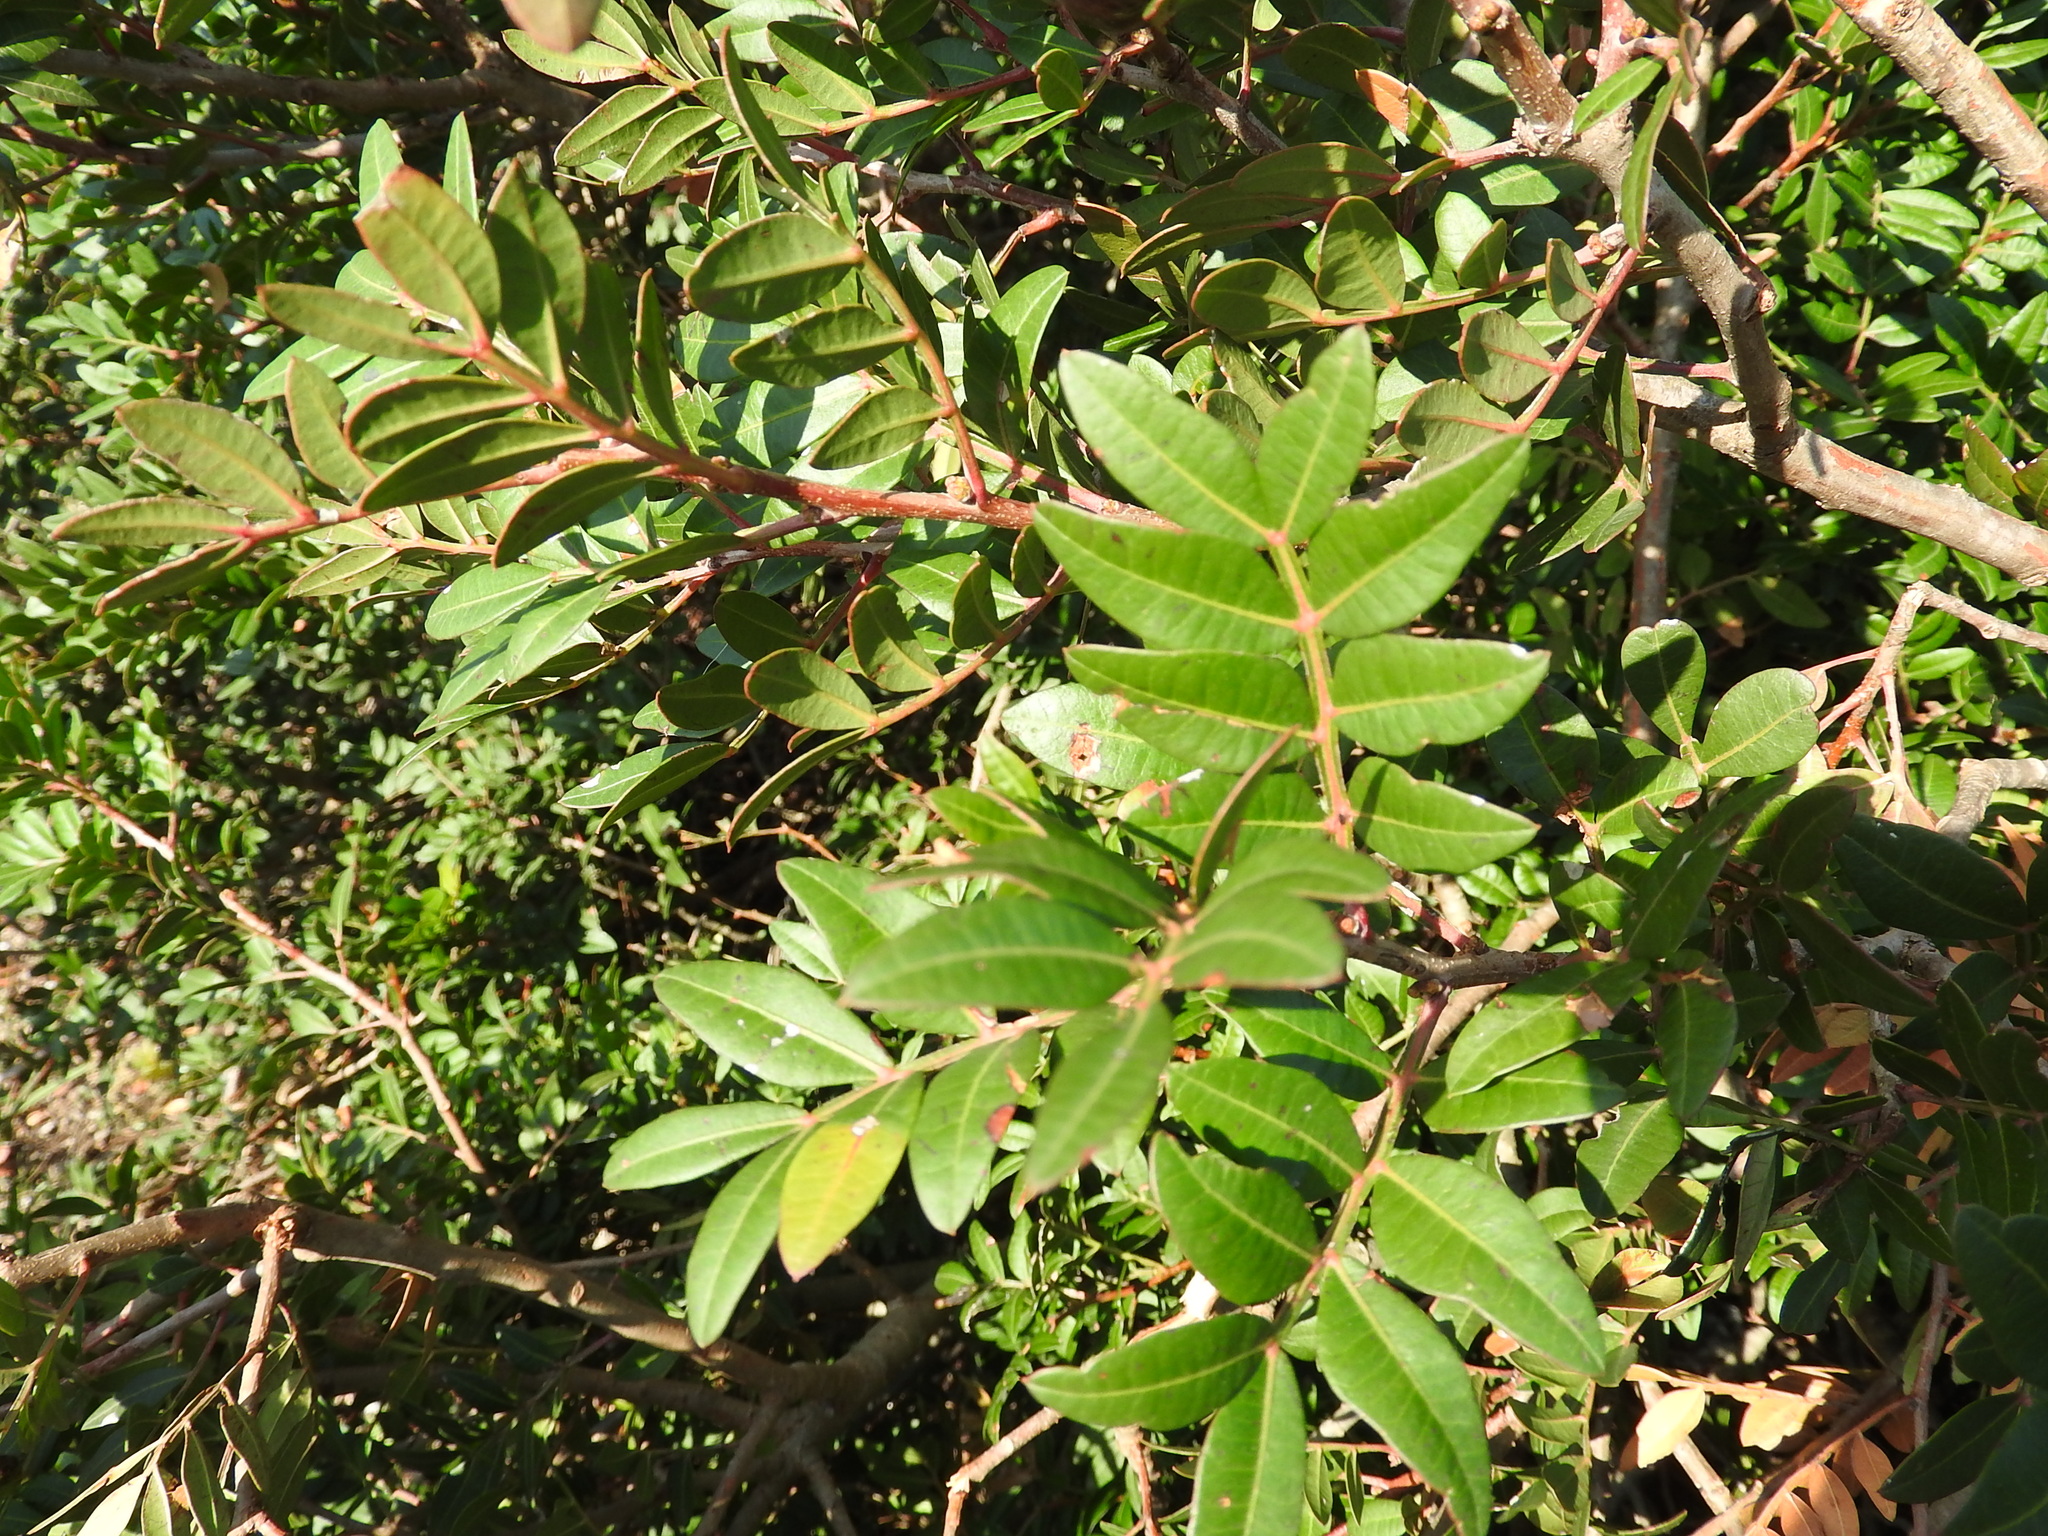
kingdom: Plantae
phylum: Tracheophyta
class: Magnoliopsida
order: Sapindales
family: Anacardiaceae
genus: Pistacia
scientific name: Pistacia lentiscus
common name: Lentisk
